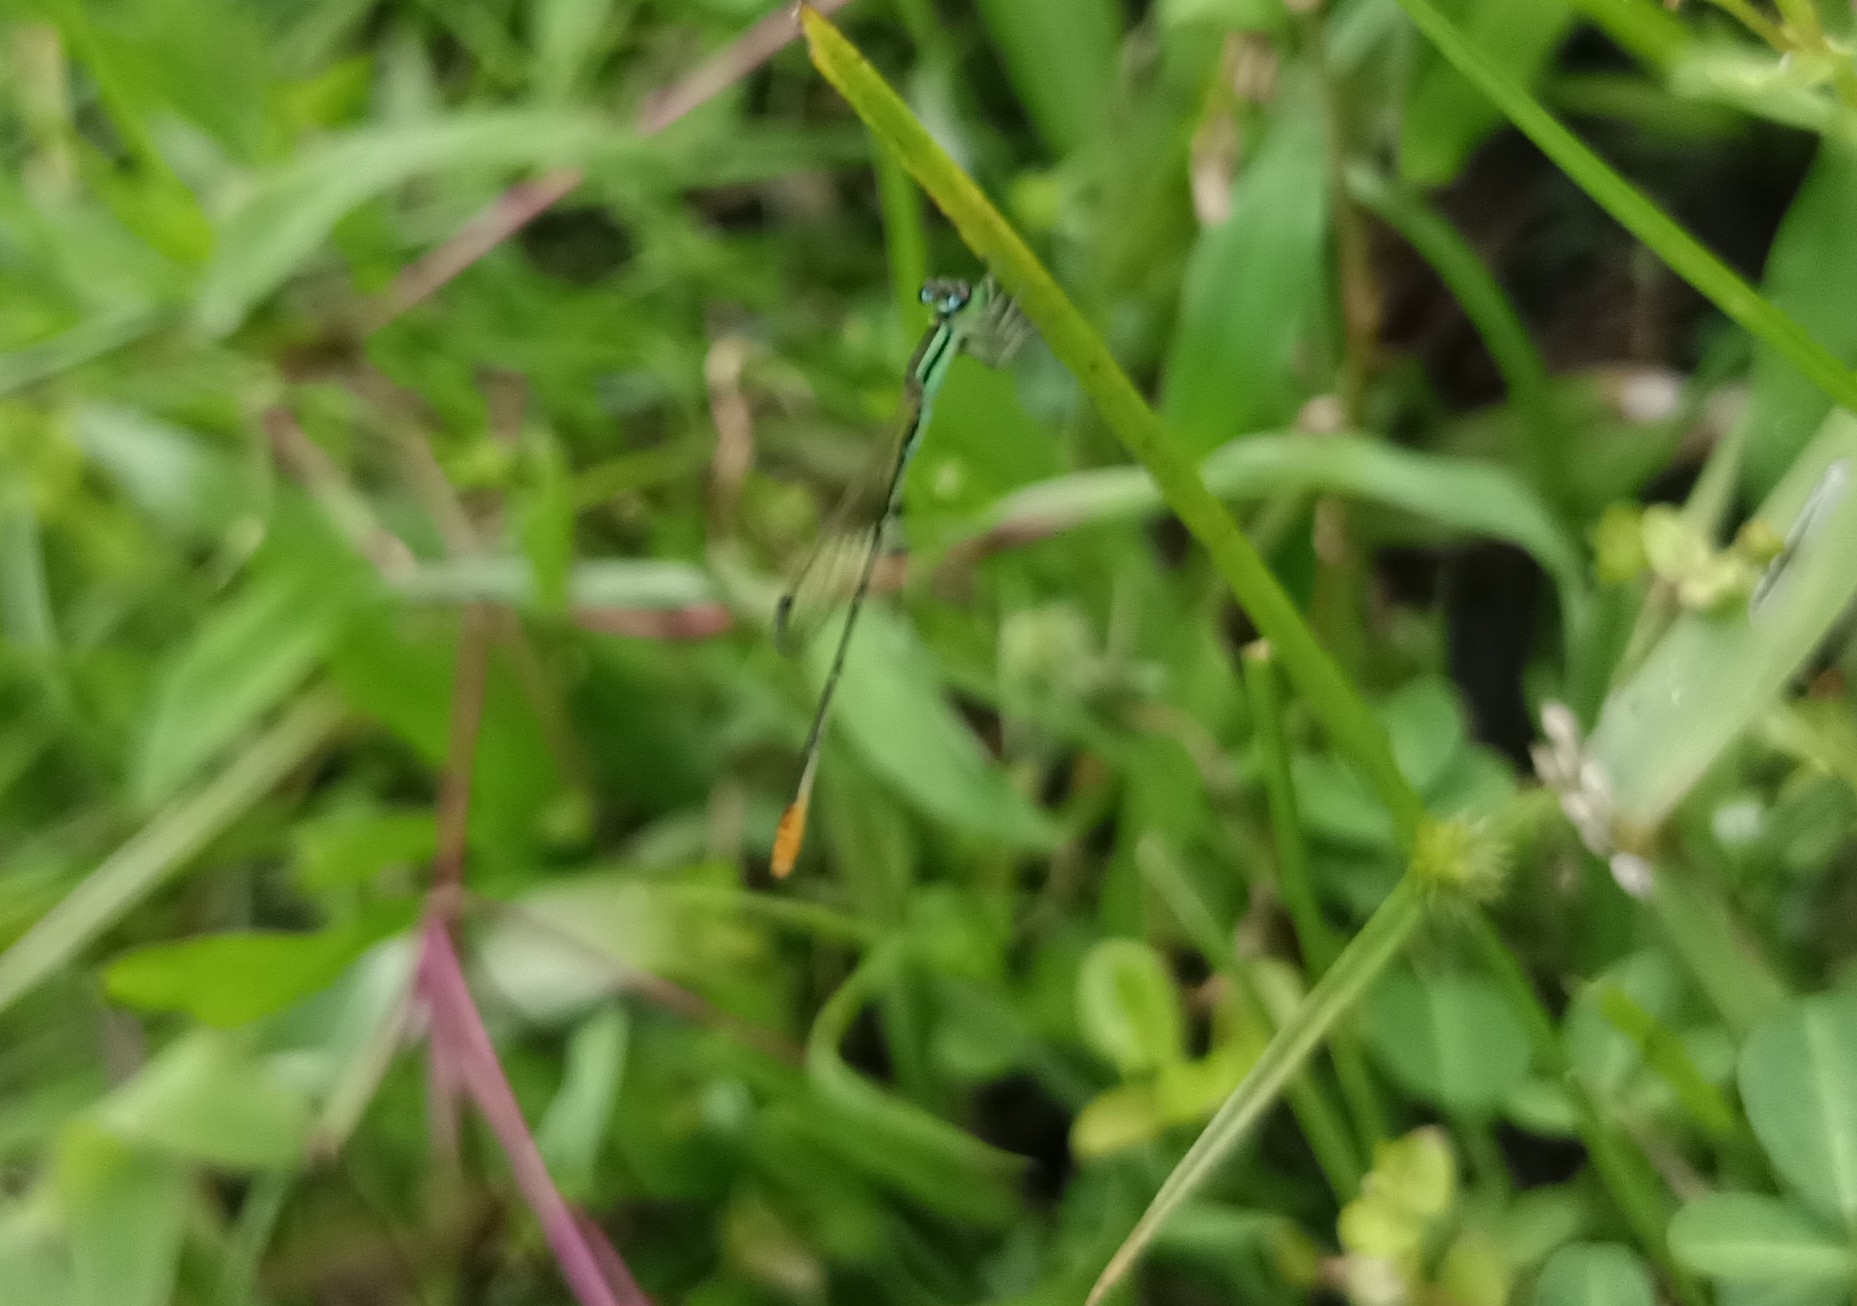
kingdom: Animalia
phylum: Arthropoda
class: Insecta
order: Odonata
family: Coenagrionidae
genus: Agriocnemis
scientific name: Agriocnemis pygmaea
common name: Pygmy wisp
